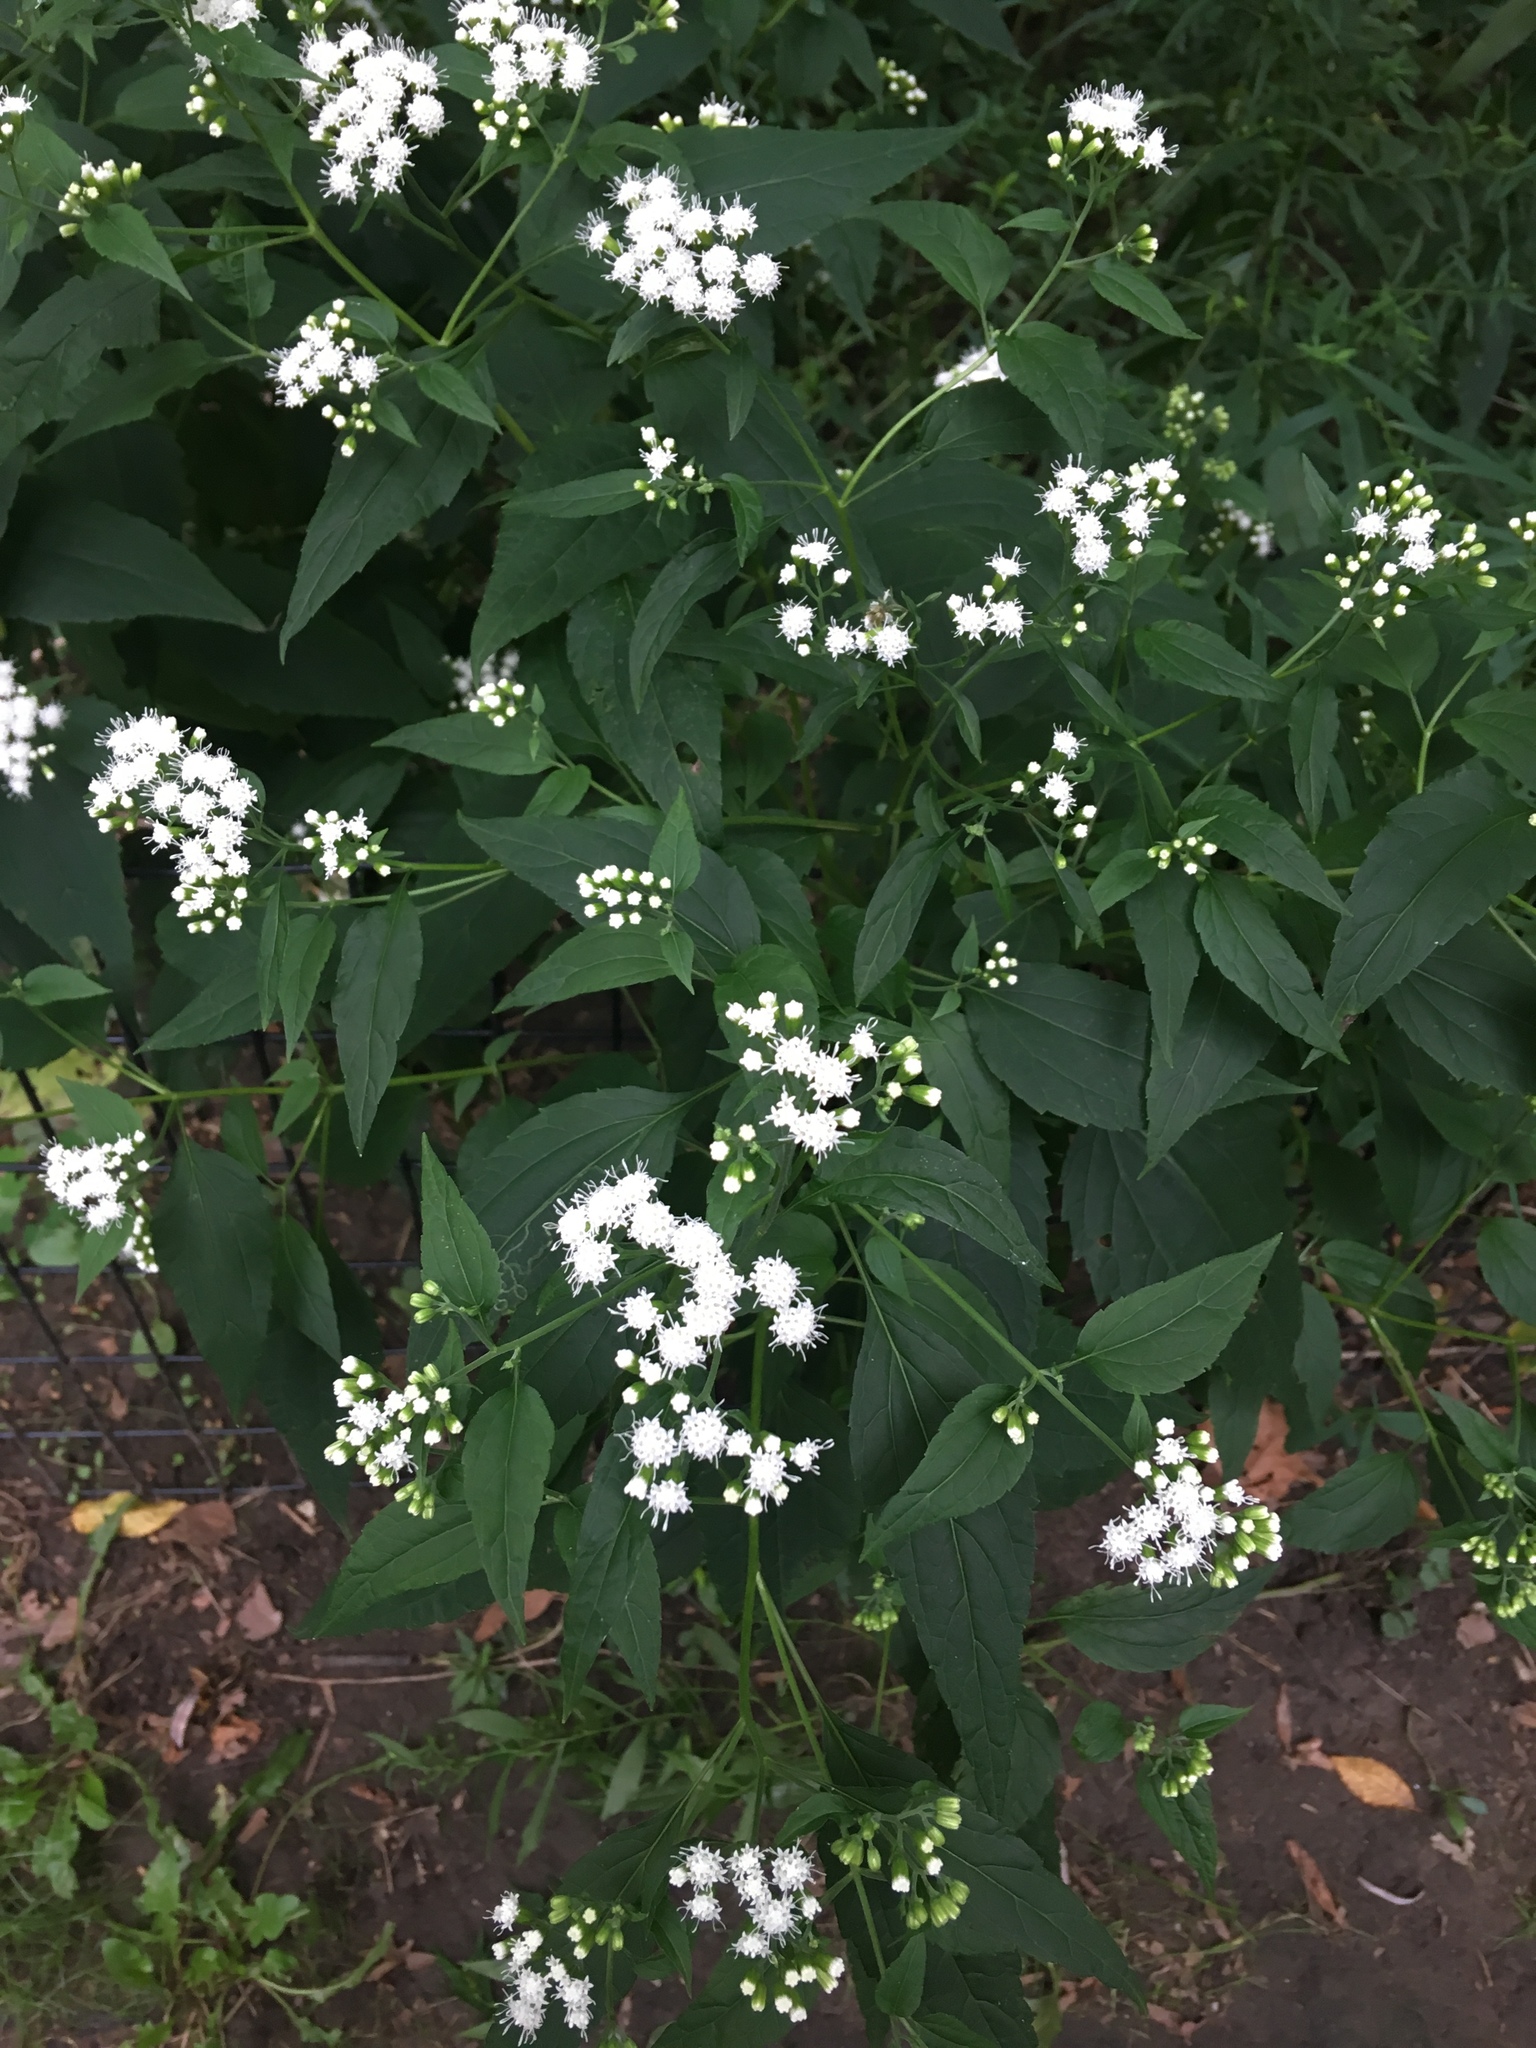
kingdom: Plantae
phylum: Tracheophyta
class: Magnoliopsida
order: Asterales
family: Asteraceae
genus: Ageratina
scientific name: Ageratina altissima
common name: White snakeroot
